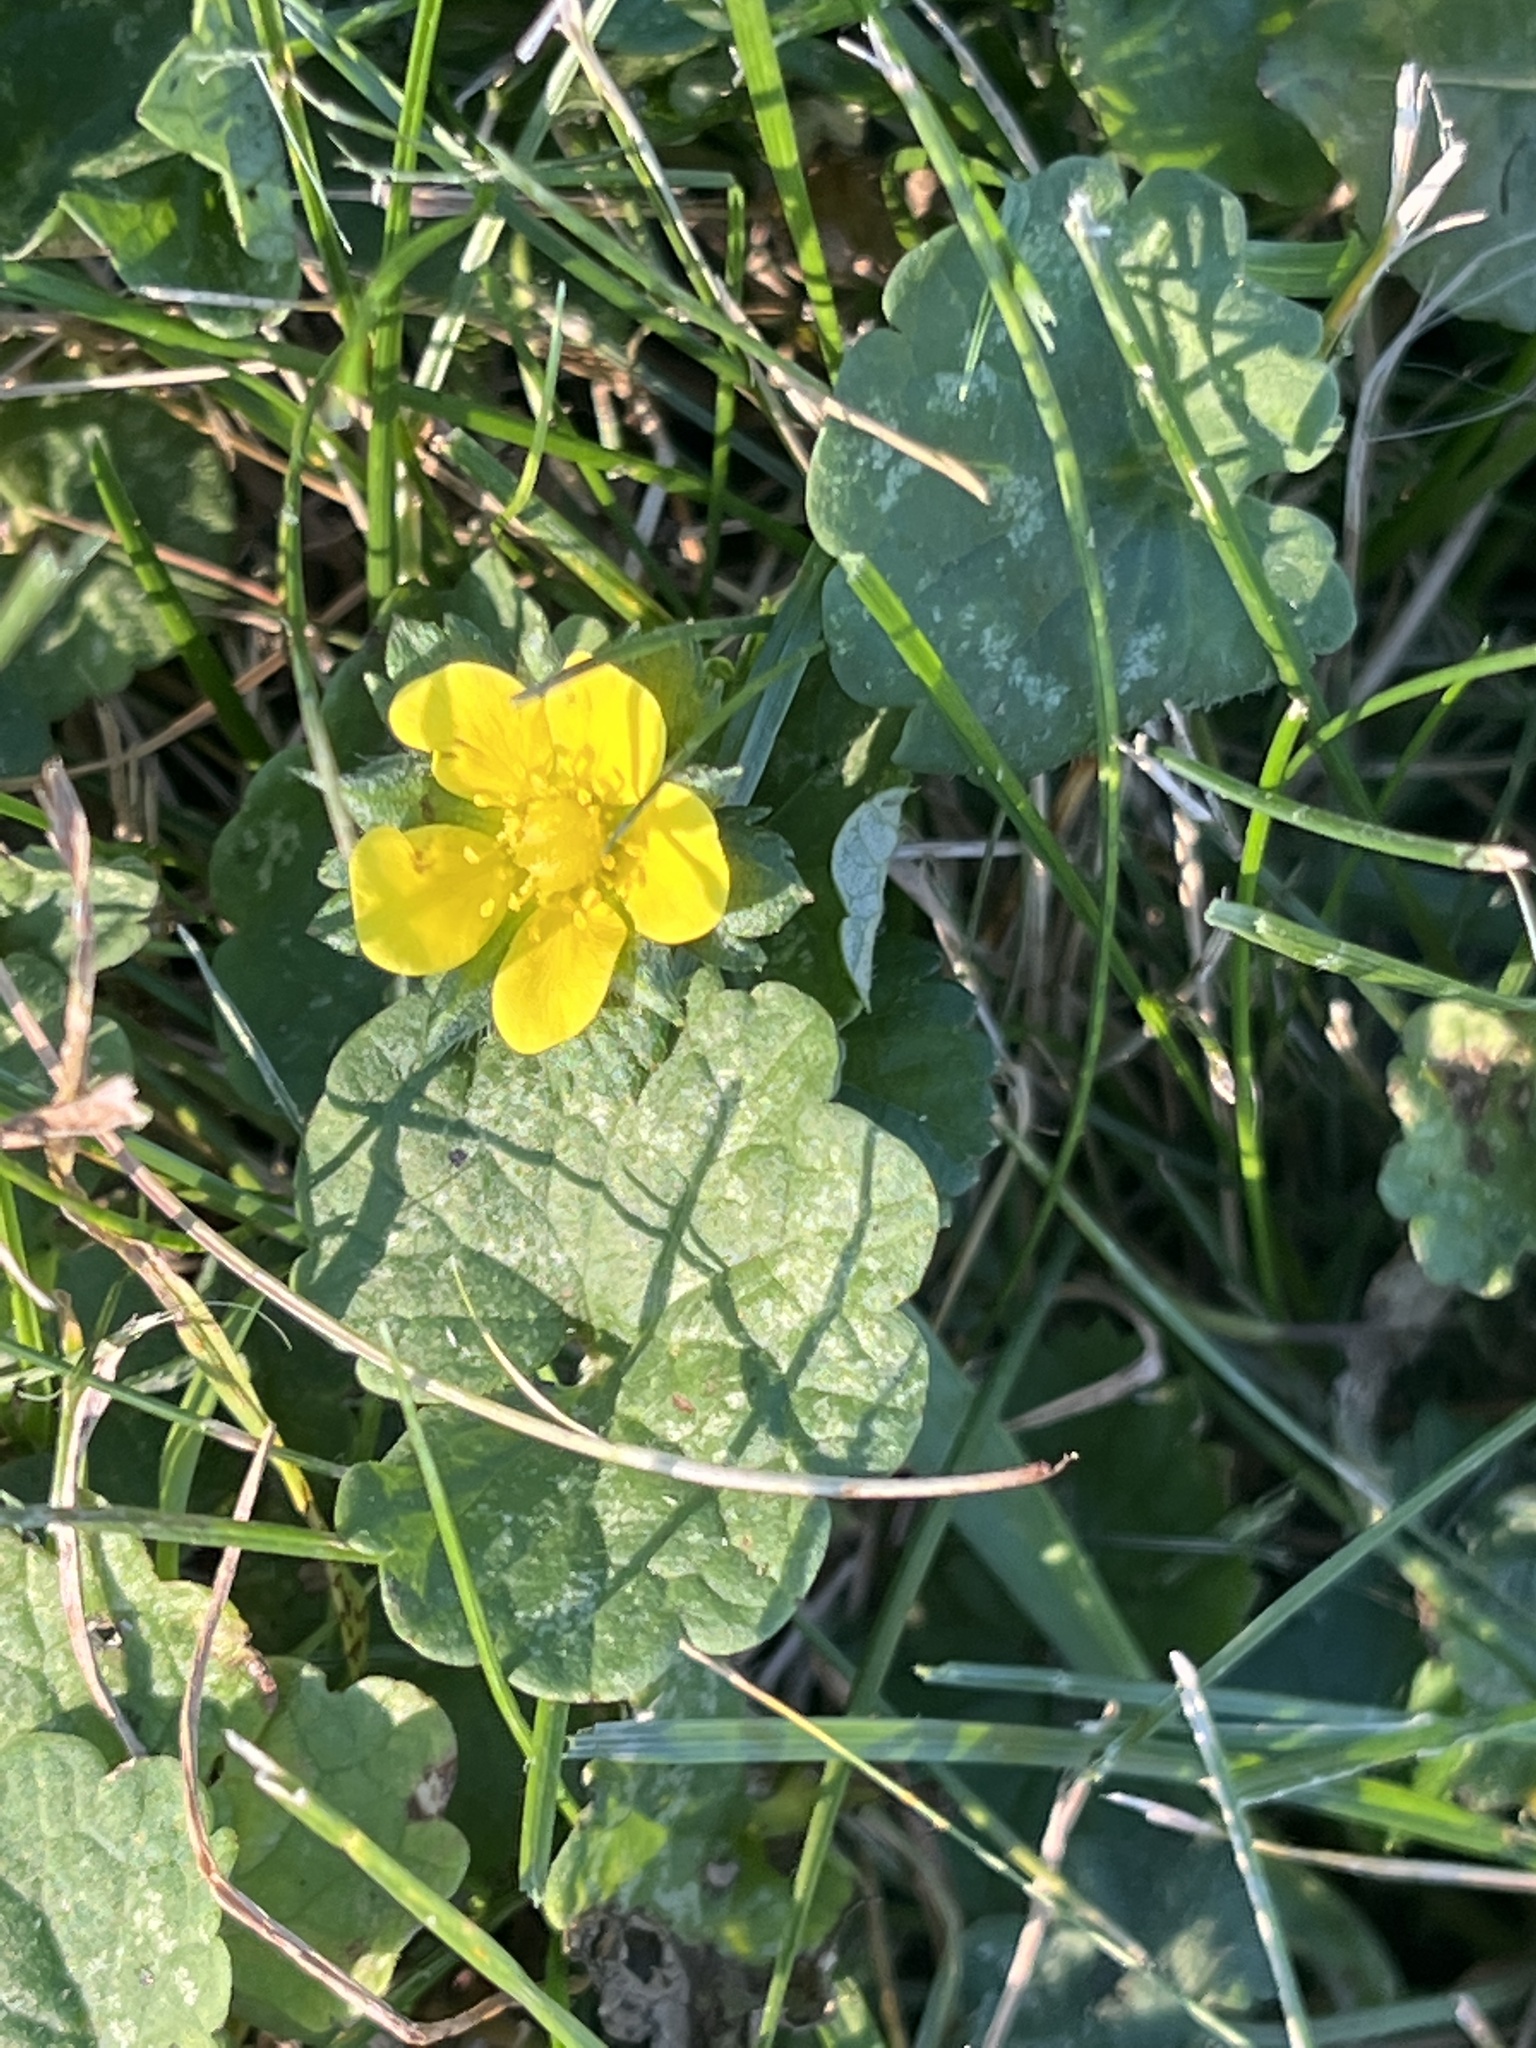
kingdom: Plantae
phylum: Tracheophyta
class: Magnoliopsida
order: Rosales
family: Rosaceae
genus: Potentilla
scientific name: Potentilla indica
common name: Yellow-flowered strawberry
